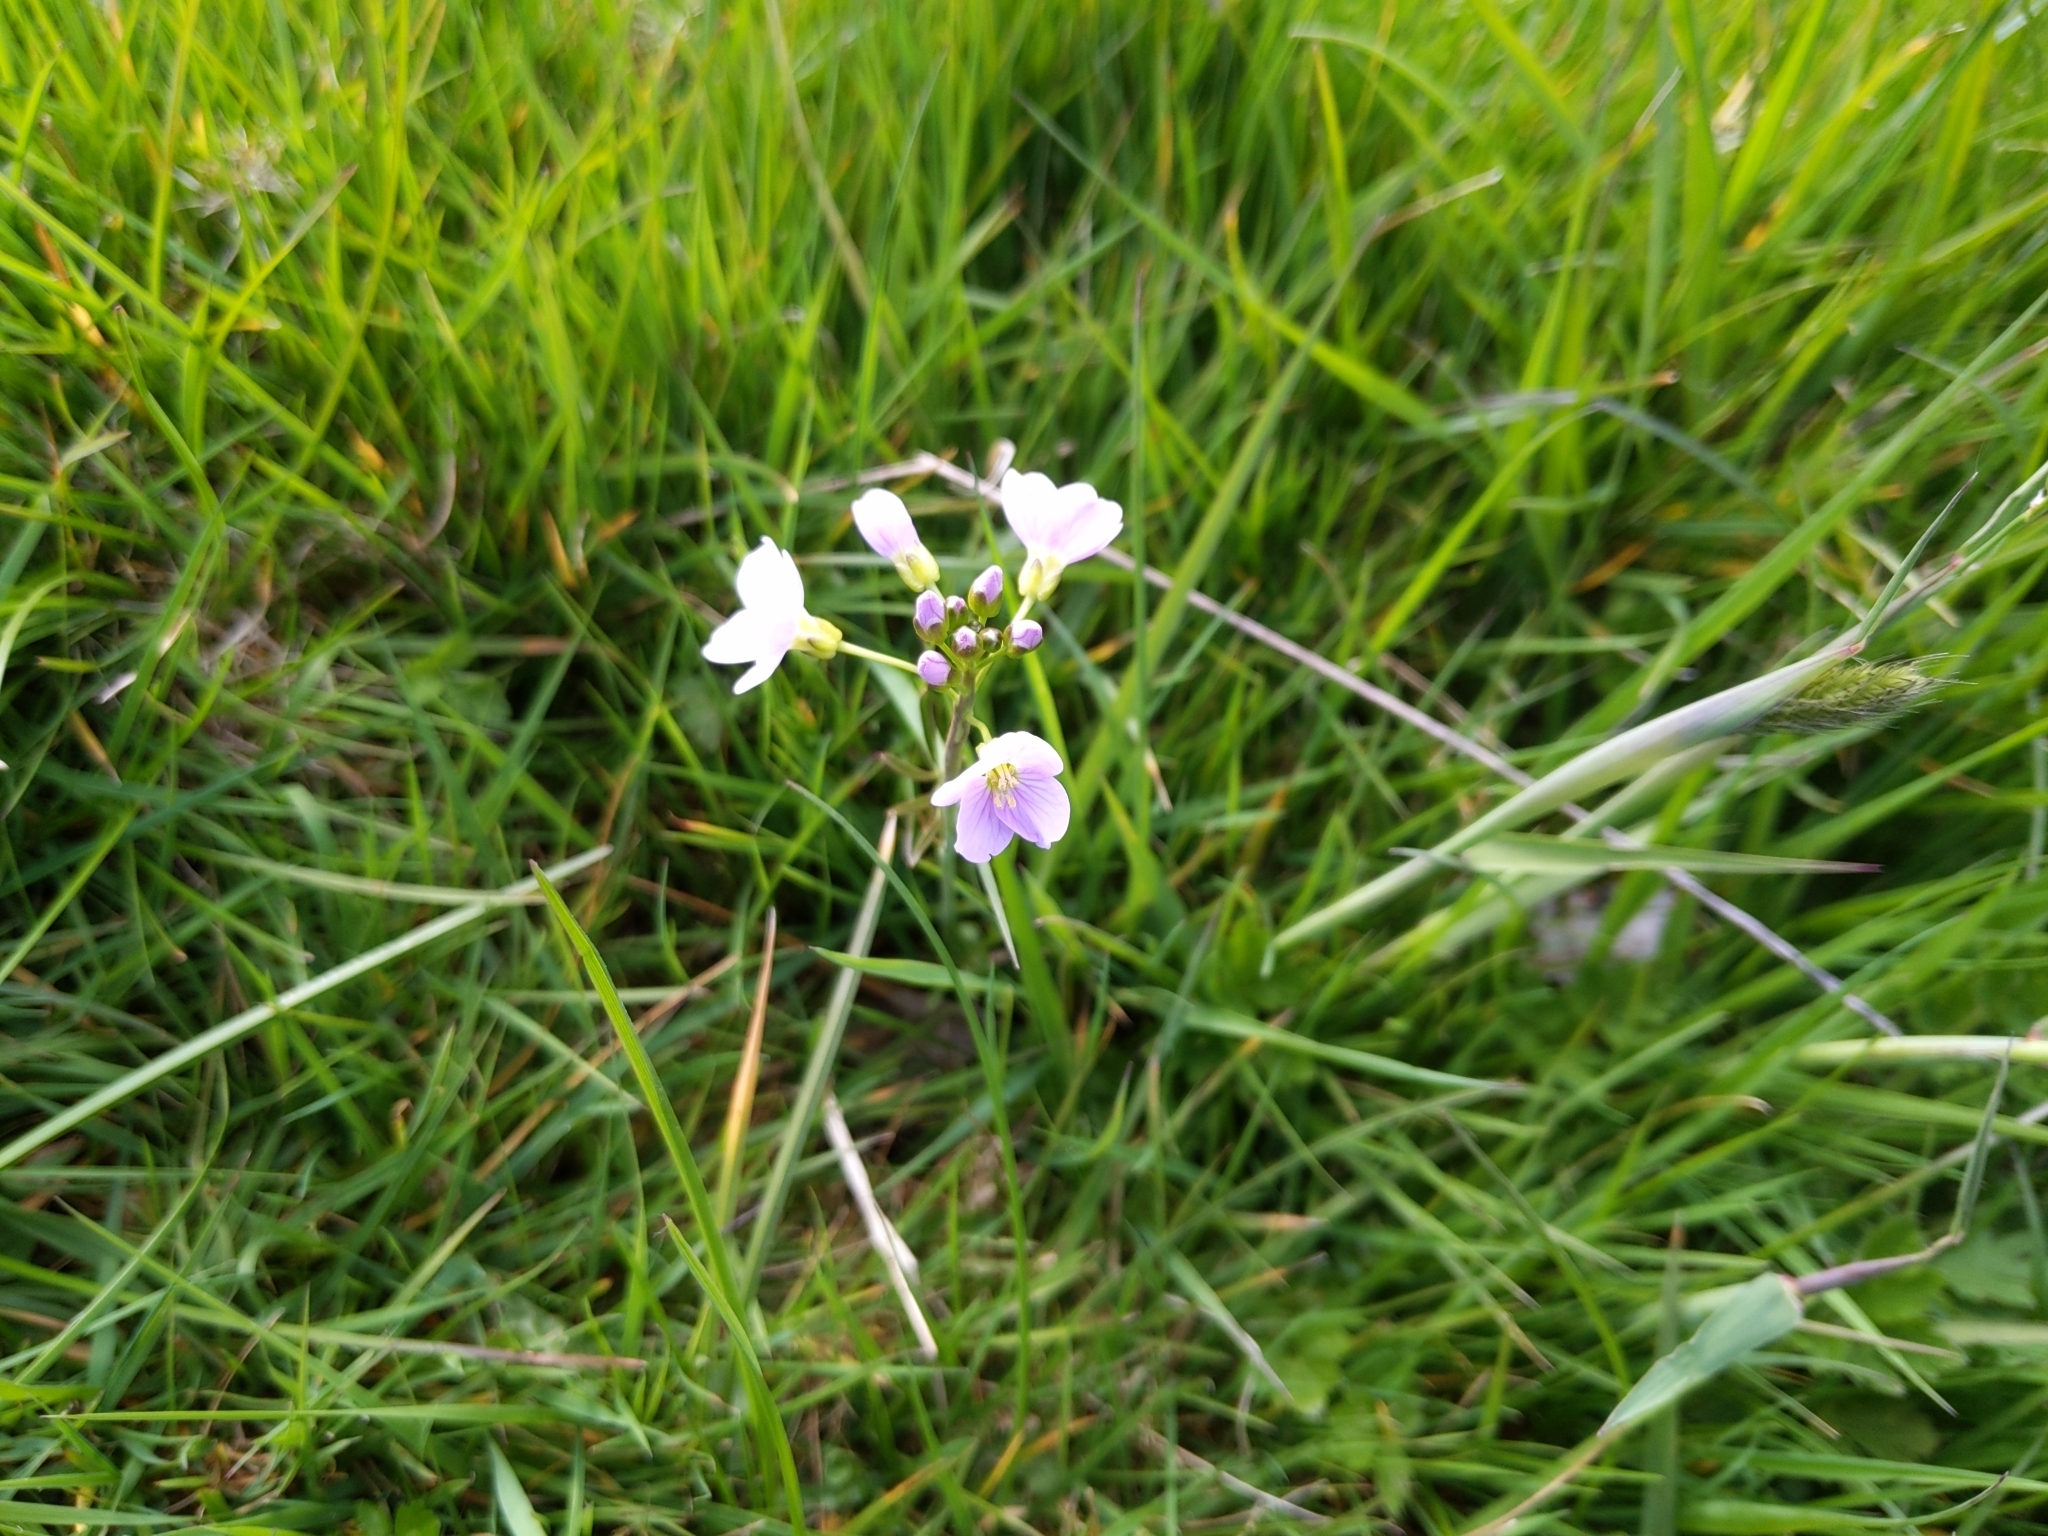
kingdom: Plantae
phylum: Tracheophyta
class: Magnoliopsida
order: Brassicales
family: Brassicaceae
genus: Cardamine
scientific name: Cardamine pratensis
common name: Cuckoo flower
